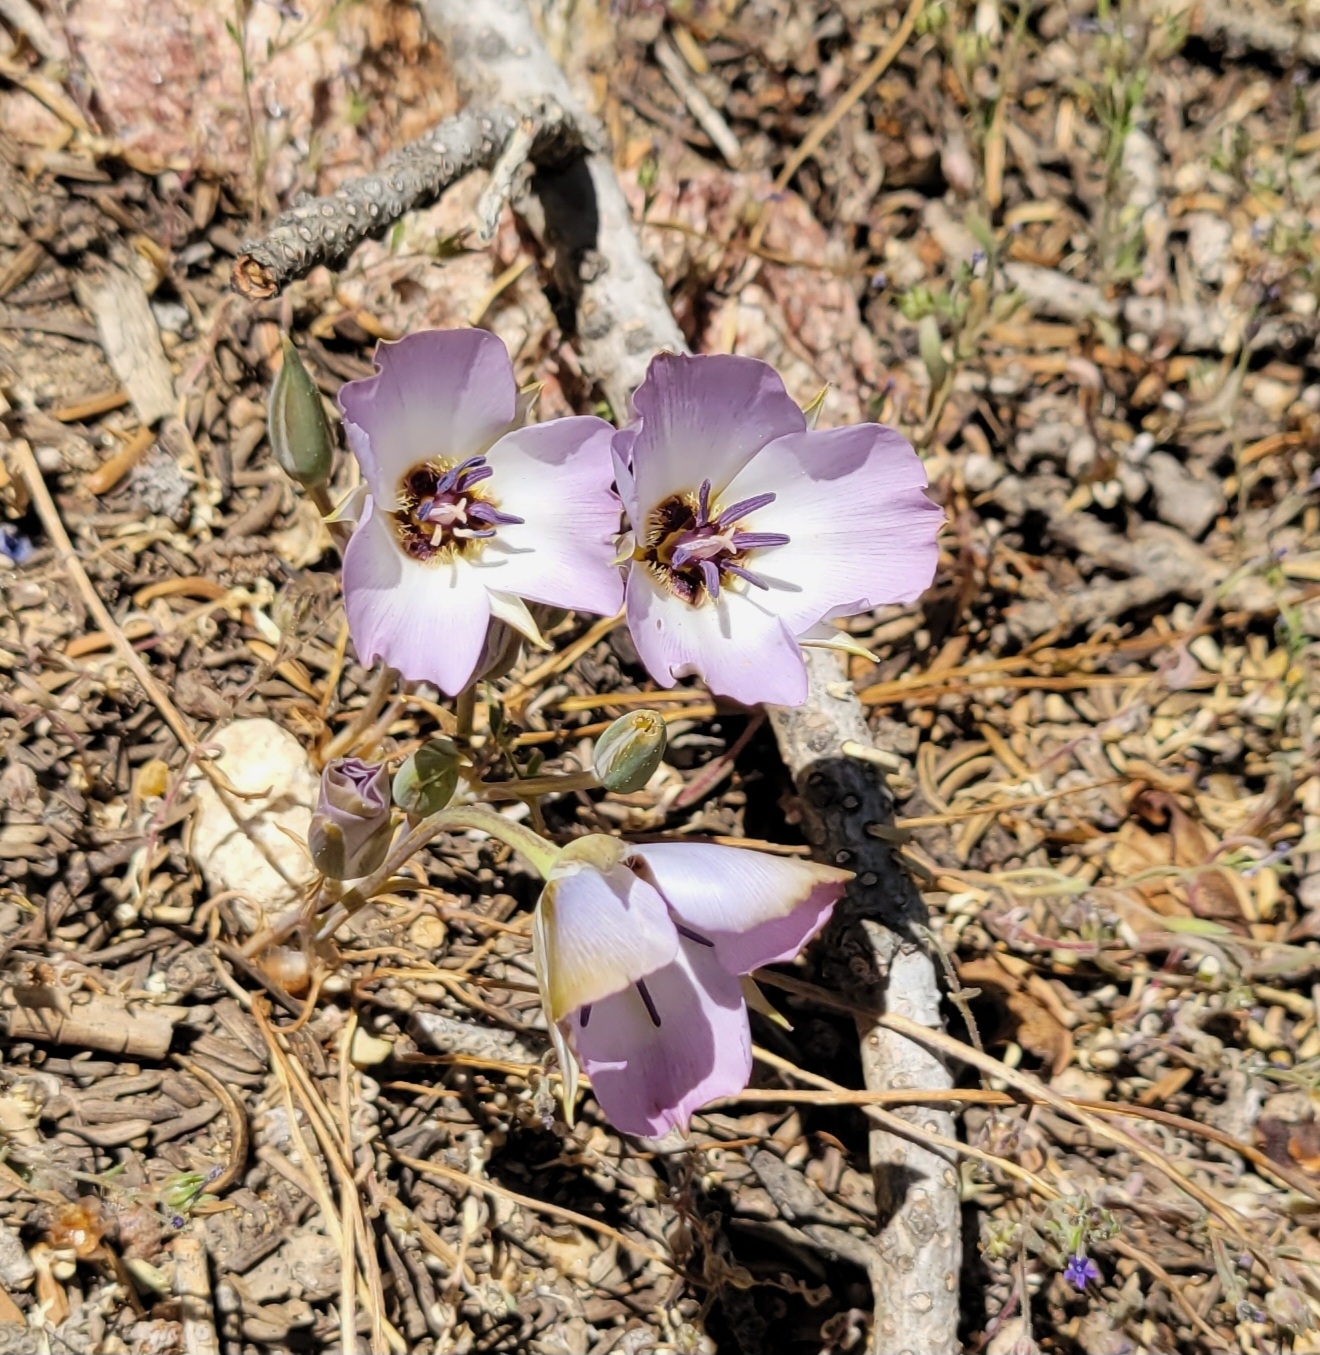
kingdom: Plantae
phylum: Tracheophyta
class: Liliopsida
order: Liliales
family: Liliaceae
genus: Calochortus
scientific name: Calochortus invenustus
